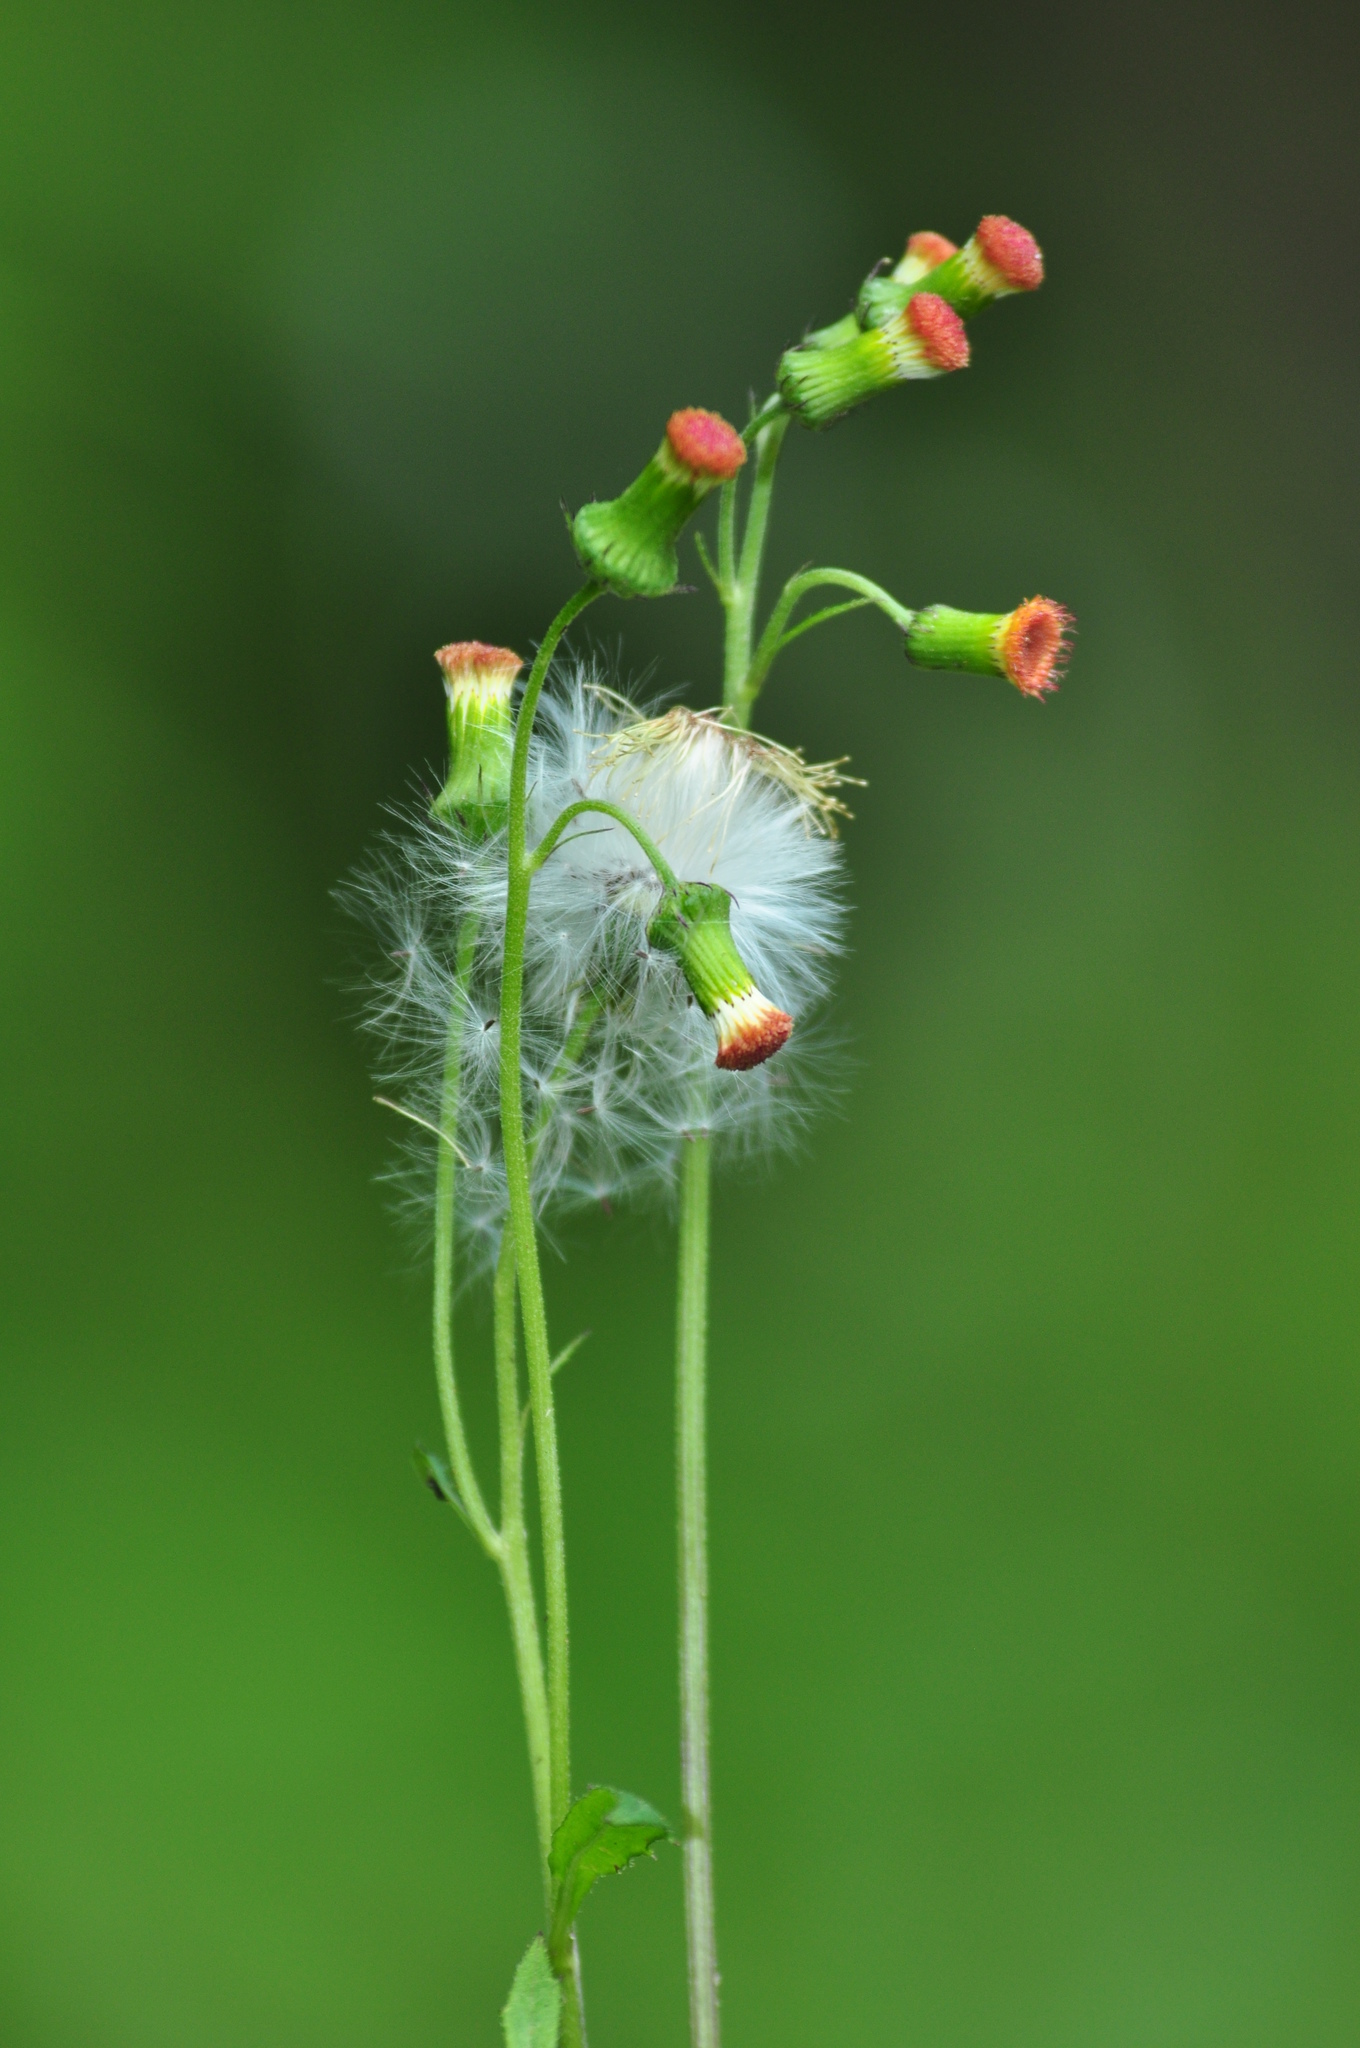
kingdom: Plantae
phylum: Tracheophyta
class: Magnoliopsida
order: Asterales
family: Asteraceae
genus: Crassocephalum
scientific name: Crassocephalum crepidioides
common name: Redflower ragleaf
